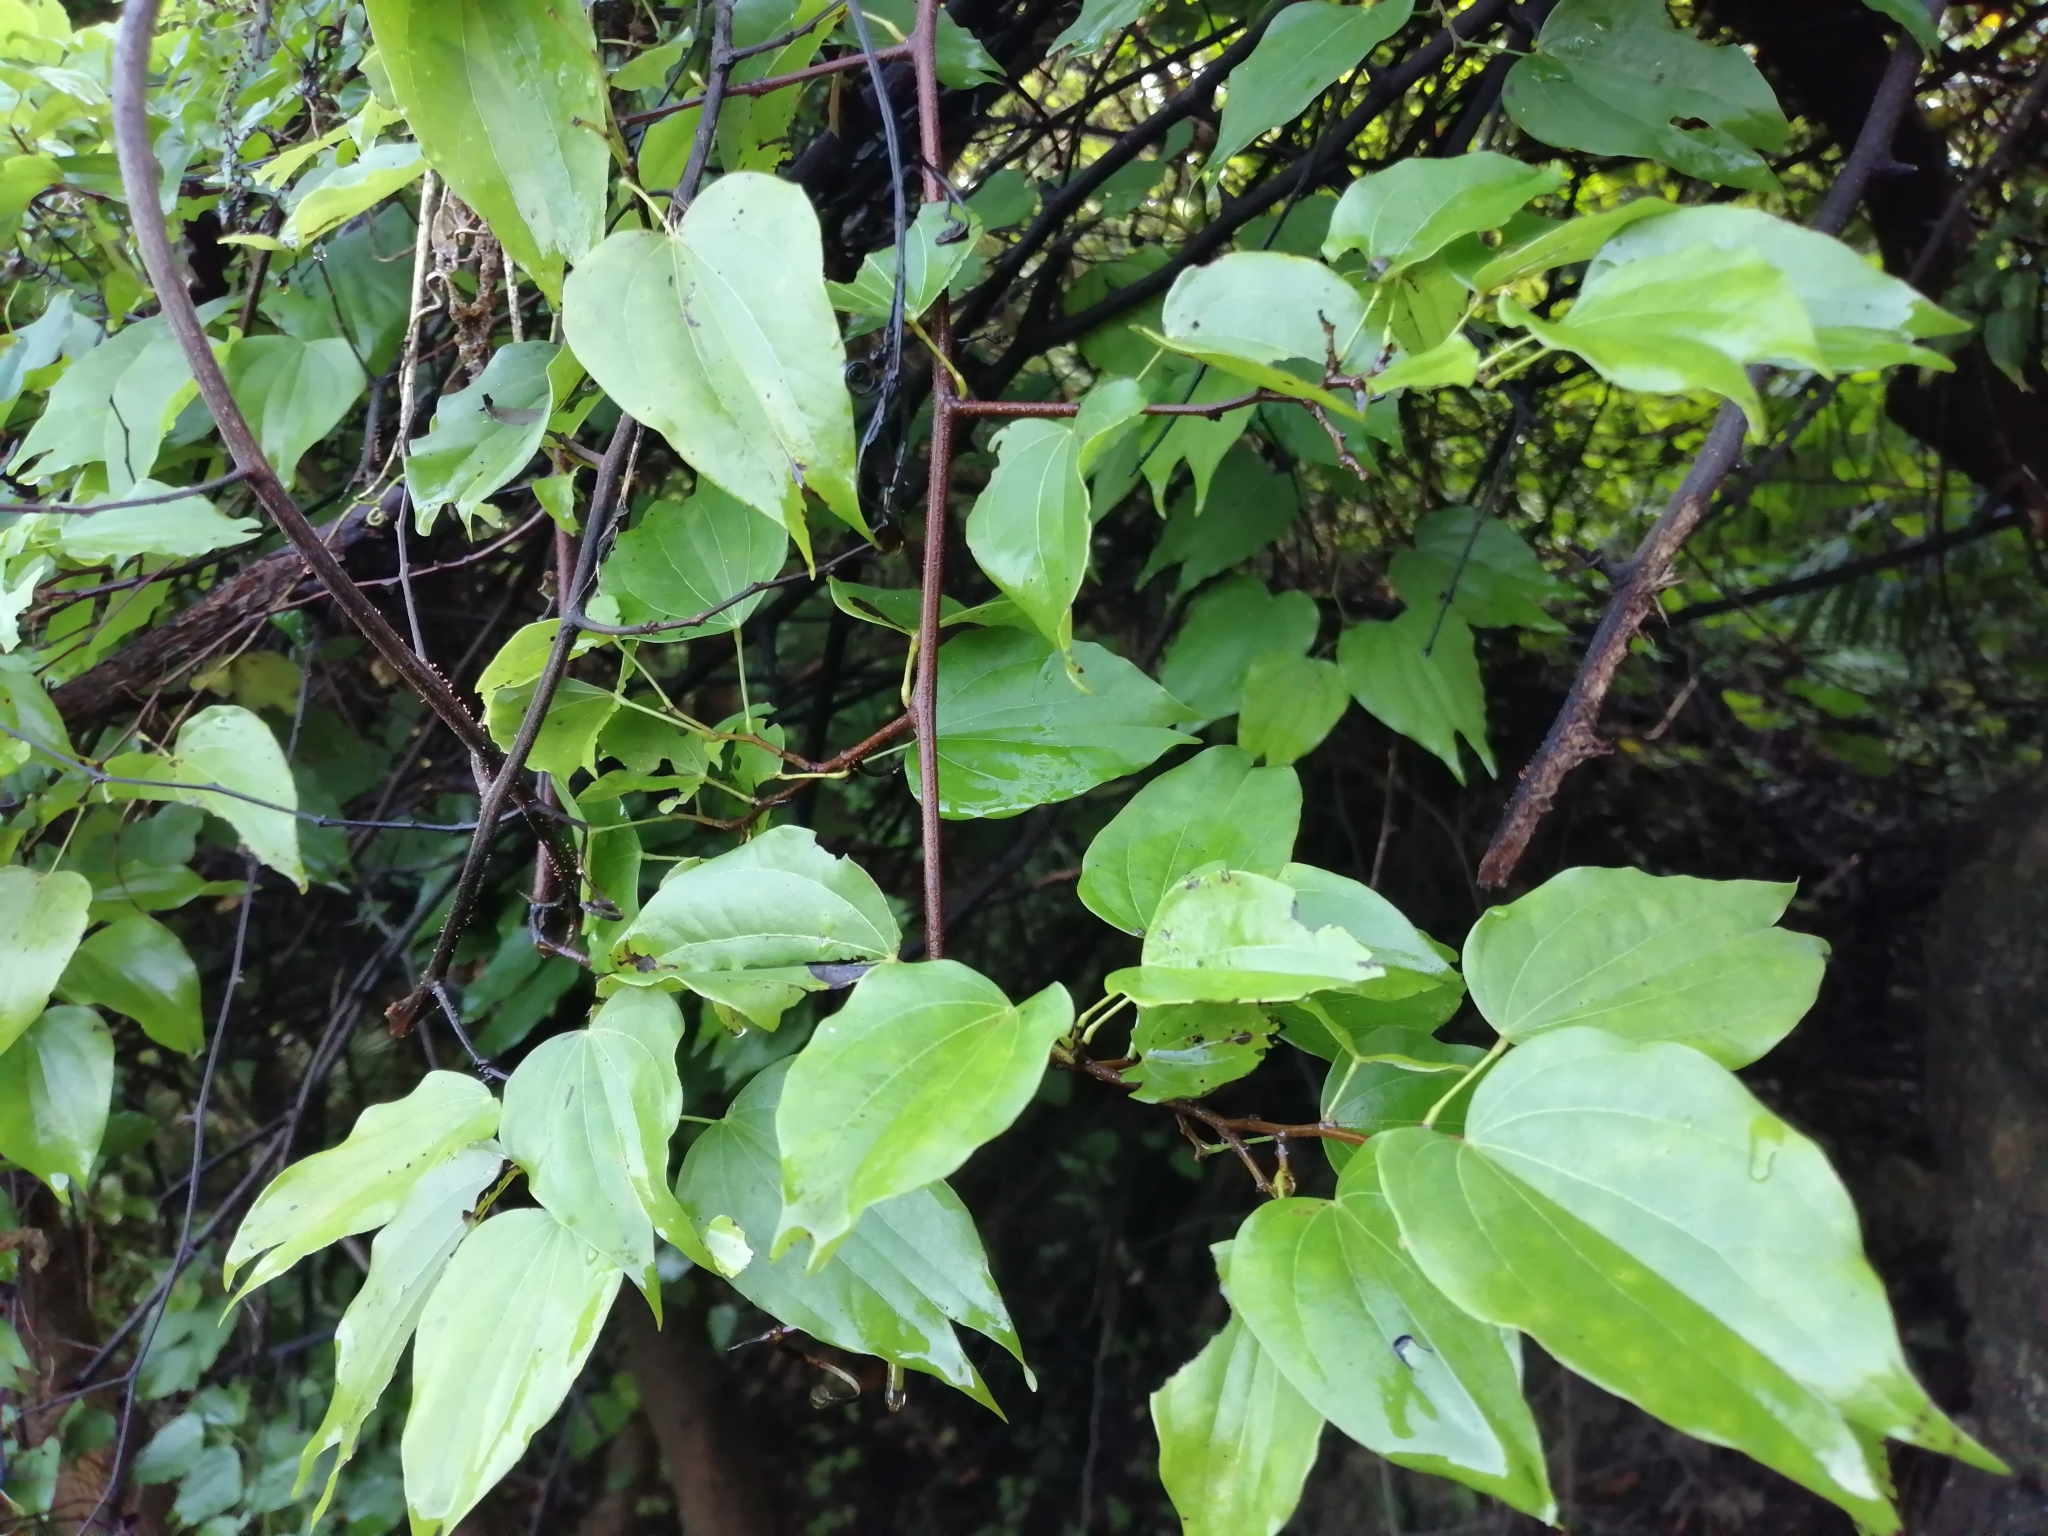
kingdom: Plantae
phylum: Tracheophyta
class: Magnoliopsida
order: Fabales
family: Fabaceae
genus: Phanera
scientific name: Phanera championii
